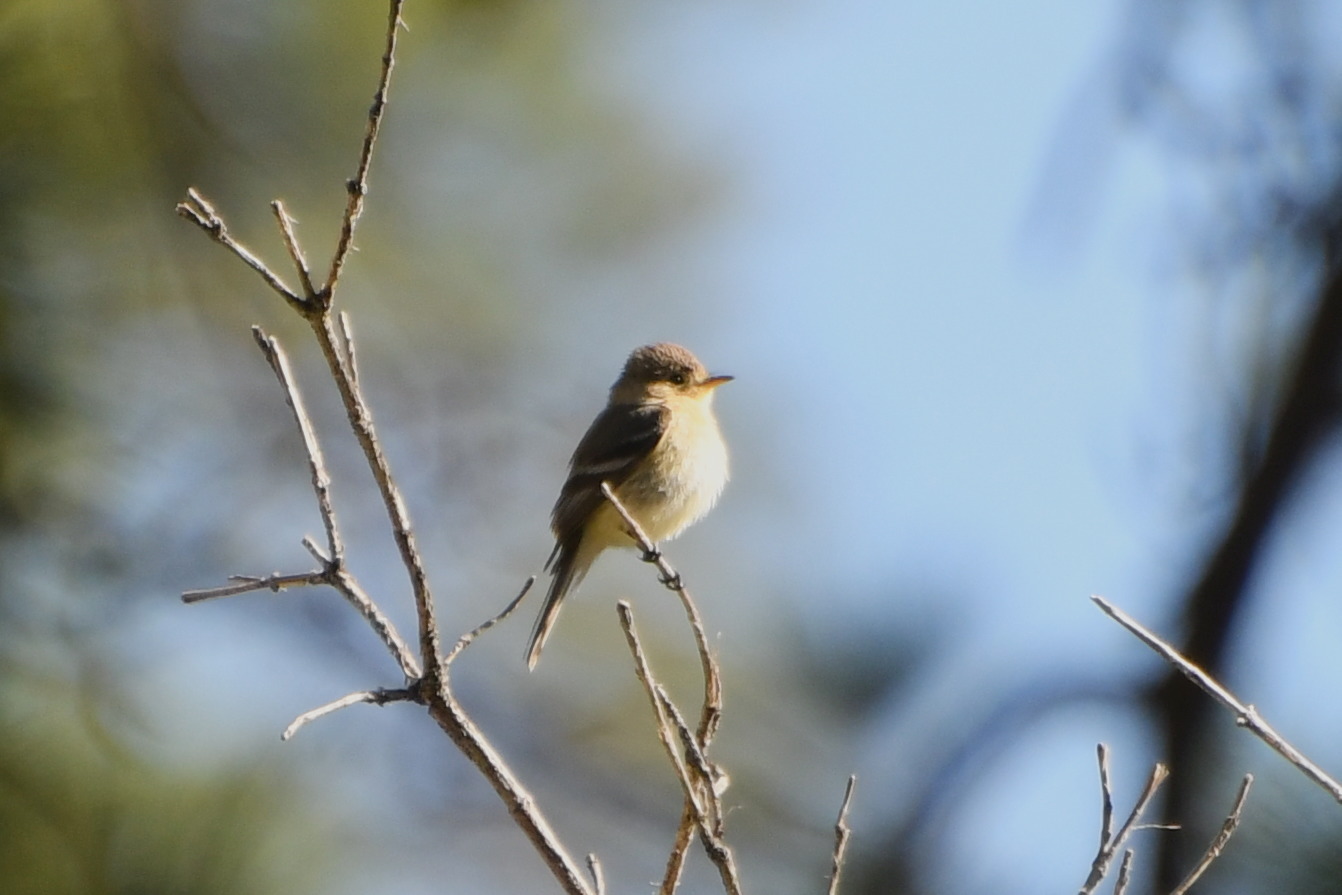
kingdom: Animalia
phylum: Chordata
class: Aves
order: Passeriformes
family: Tyrannidae
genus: Empidonax
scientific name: Empidonax fulvifrons
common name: Buff-breasted flycatcher
